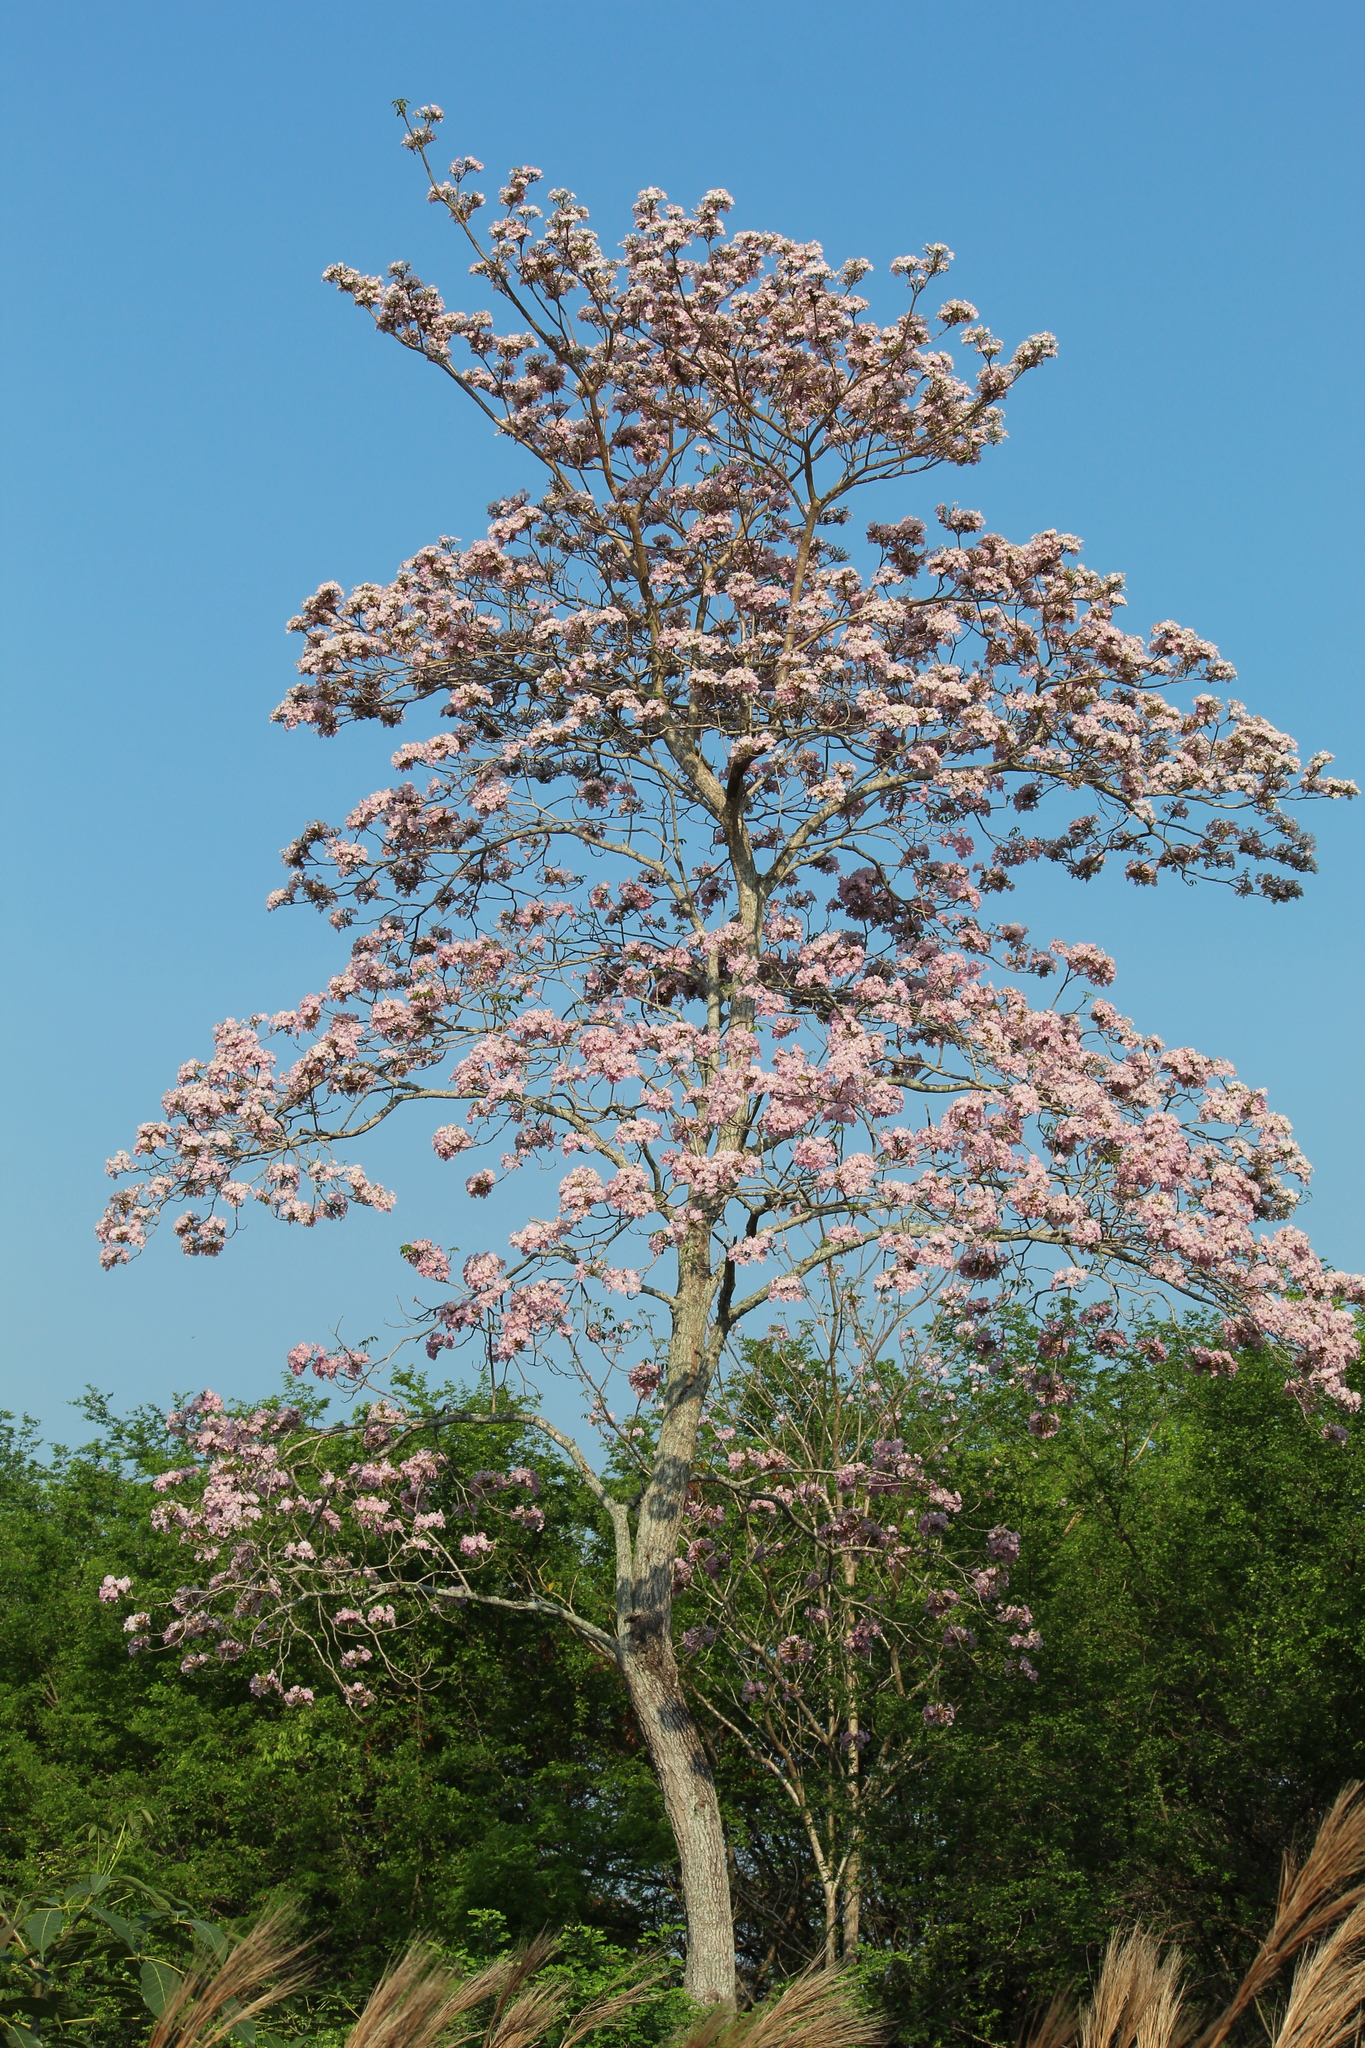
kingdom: Plantae
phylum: Tracheophyta
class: Magnoliopsida
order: Lamiales
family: Bignoniaceae
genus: Tabebuia
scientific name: Tabebuia rosea
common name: Pink poui
